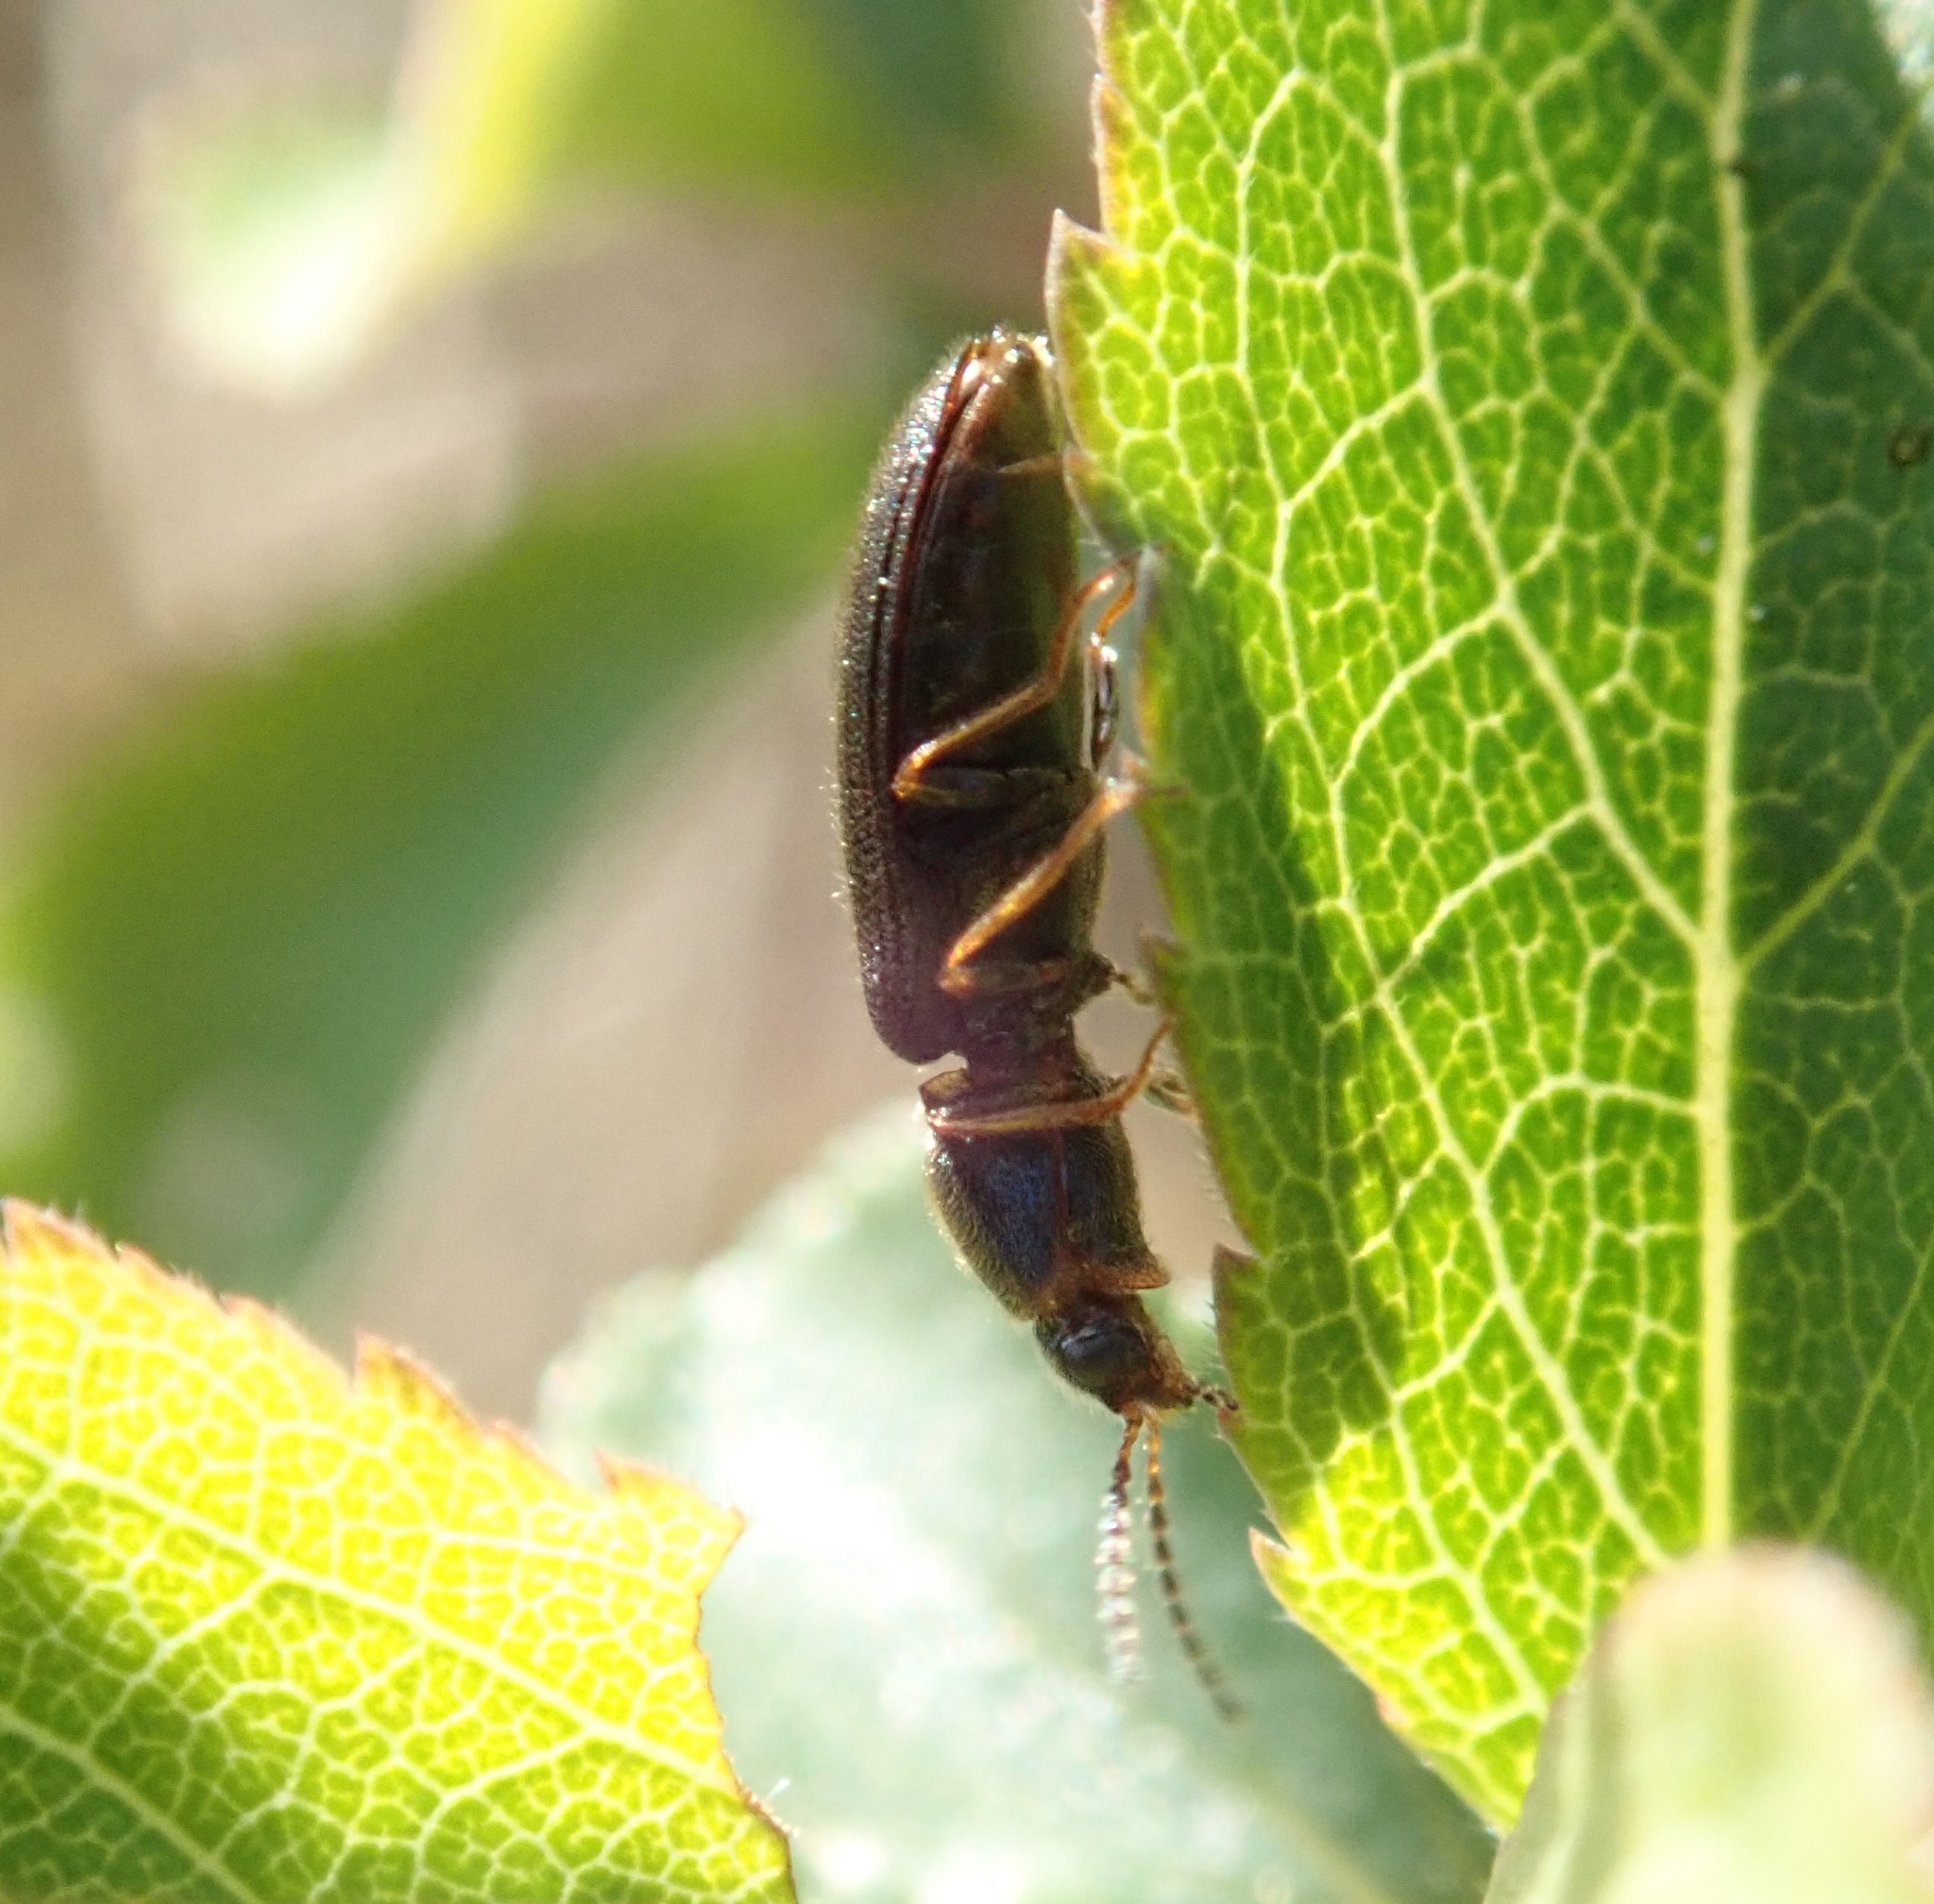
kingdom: Animalia
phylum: Arthropoda
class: Insecta
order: Coleoptera
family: Elateridae
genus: Pheletes
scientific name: Pheletes quercus
